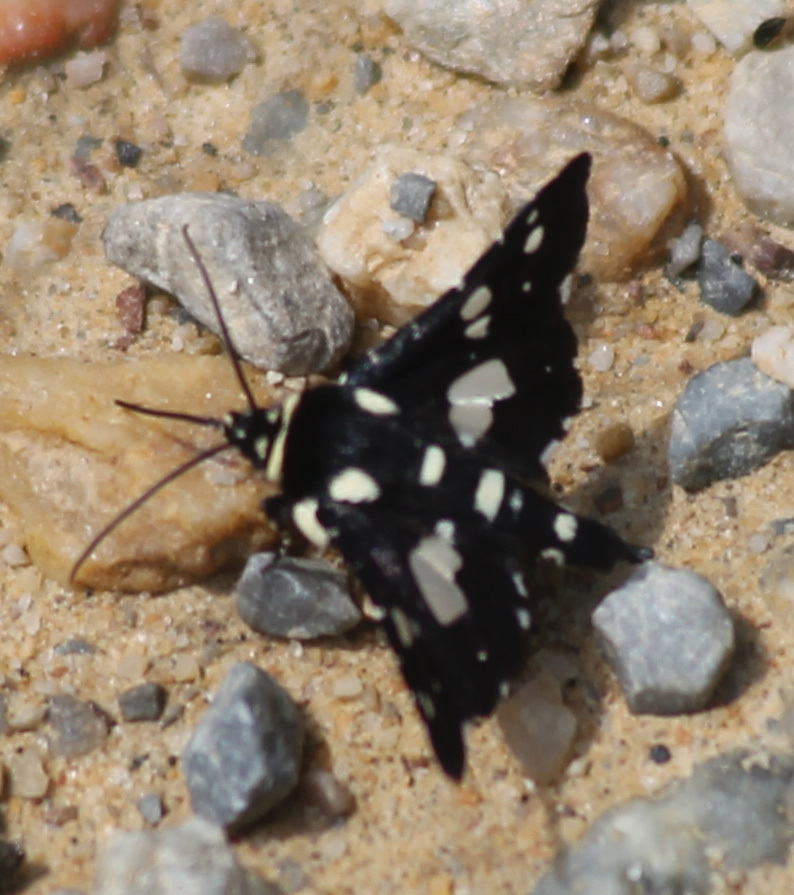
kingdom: Animalia
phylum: Arthropoda
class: Insecta
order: Lepidoptera
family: Thyrididae
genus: Pseudothyris
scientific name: Pseudothyris sepulchralis
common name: Mournful thyris moth
